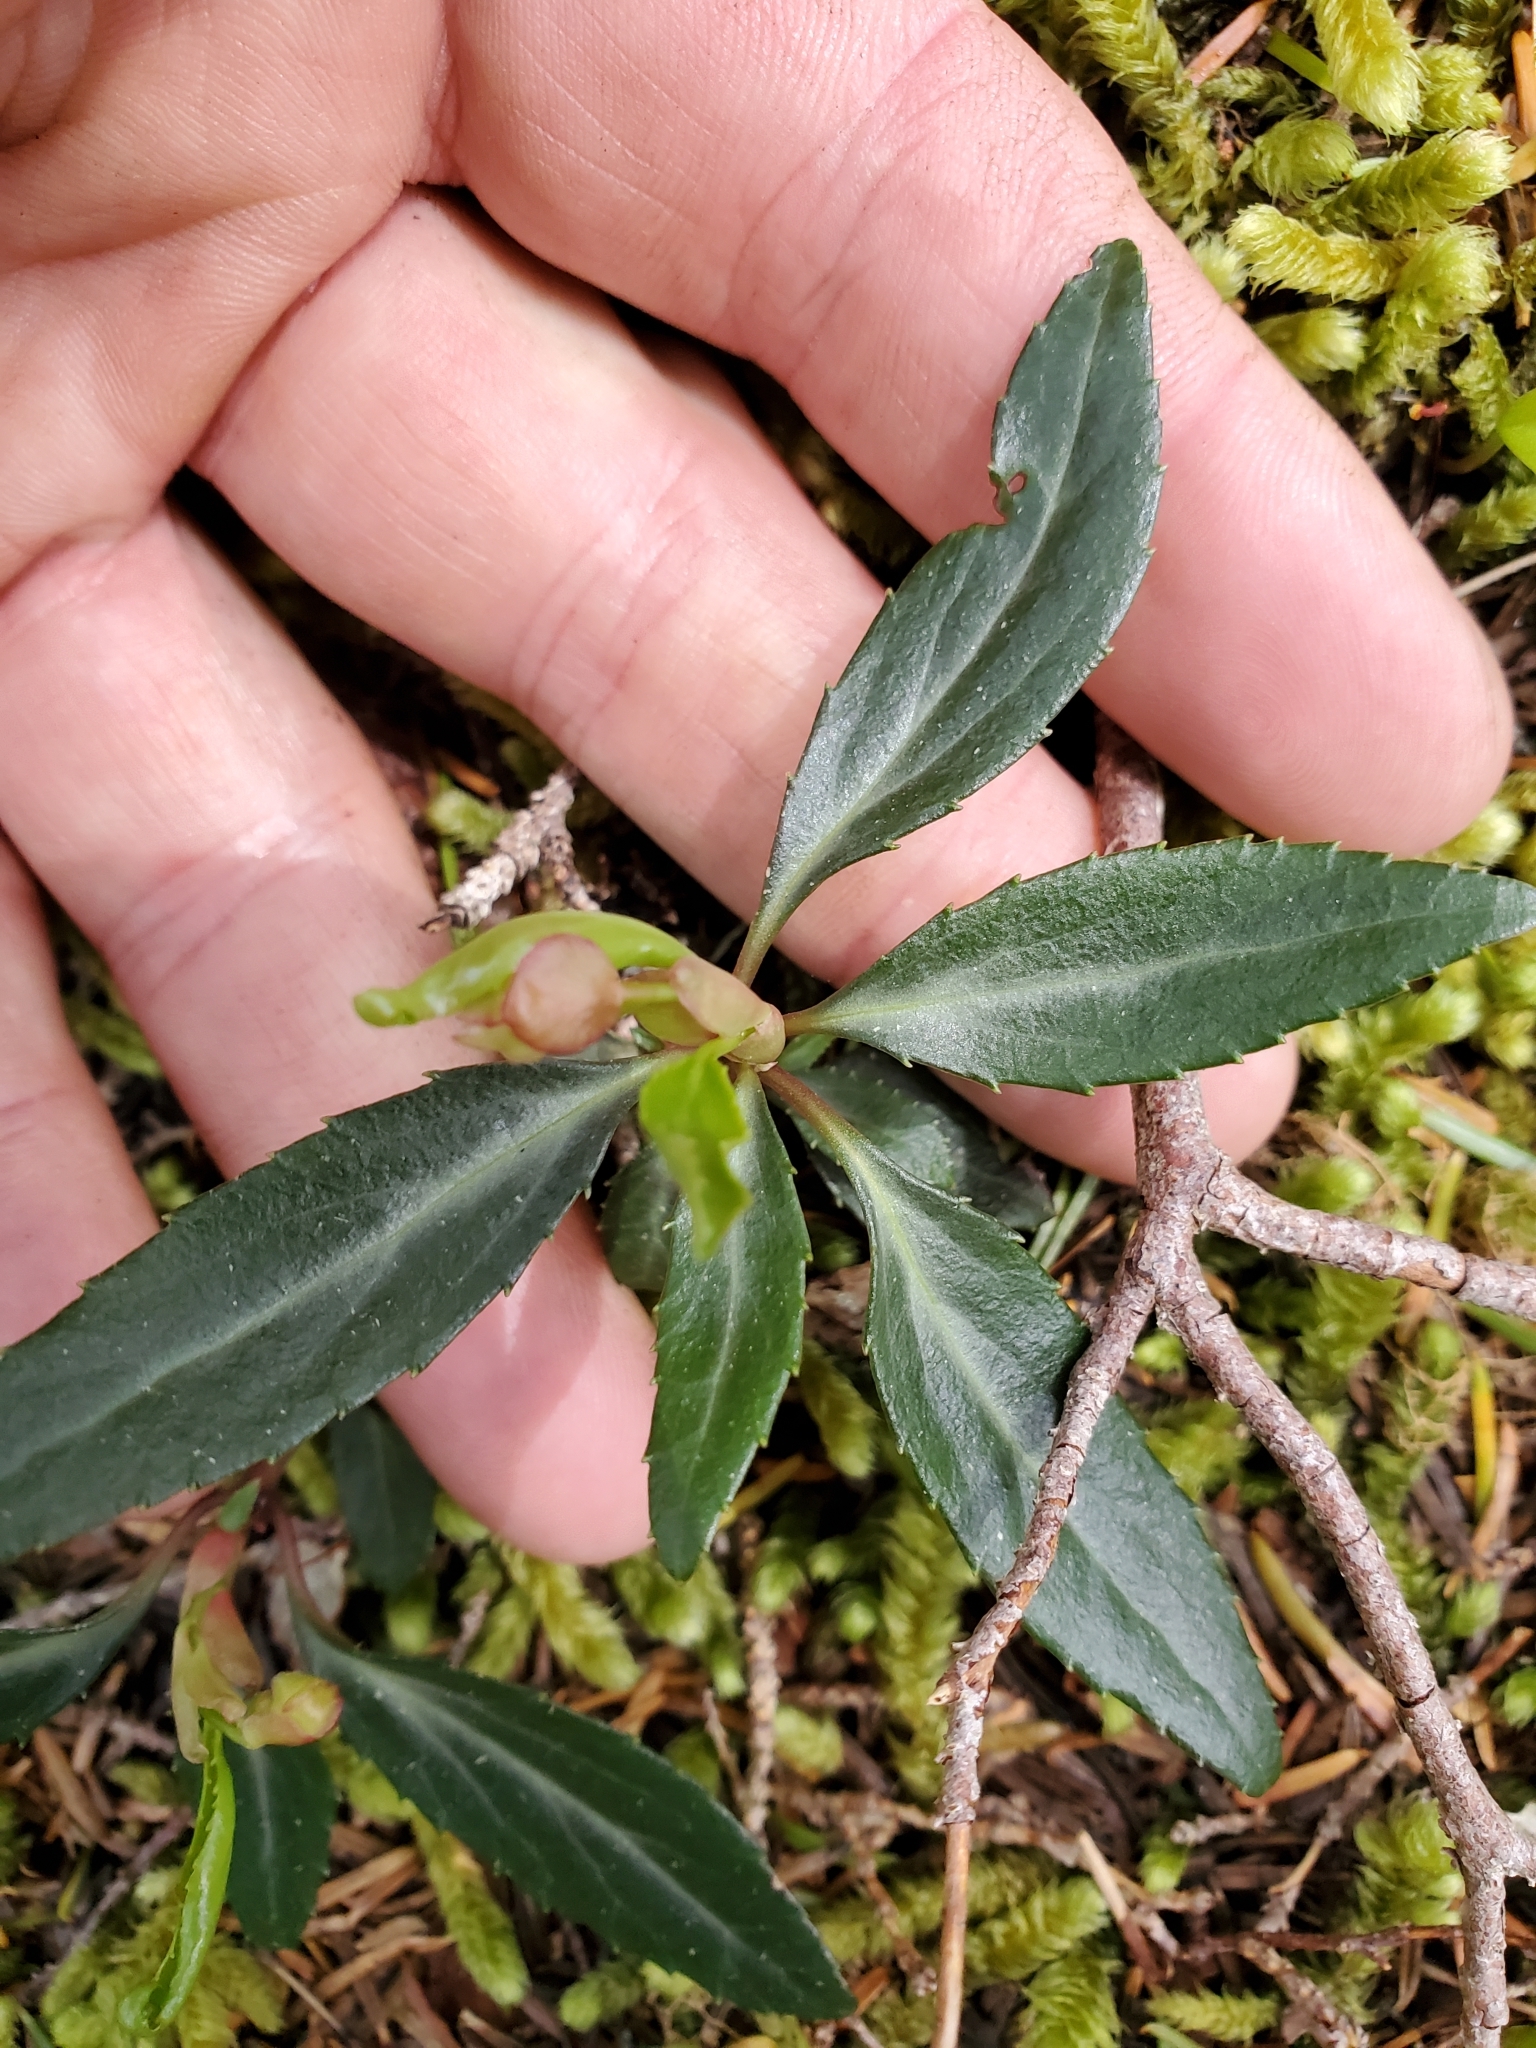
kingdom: Plantae
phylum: Tracheophyta
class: Magnoliopsida
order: Ericales
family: Ericaceae
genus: Chimaphila
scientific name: Chimaphila menziesii
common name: Menzies' pipsissewa
